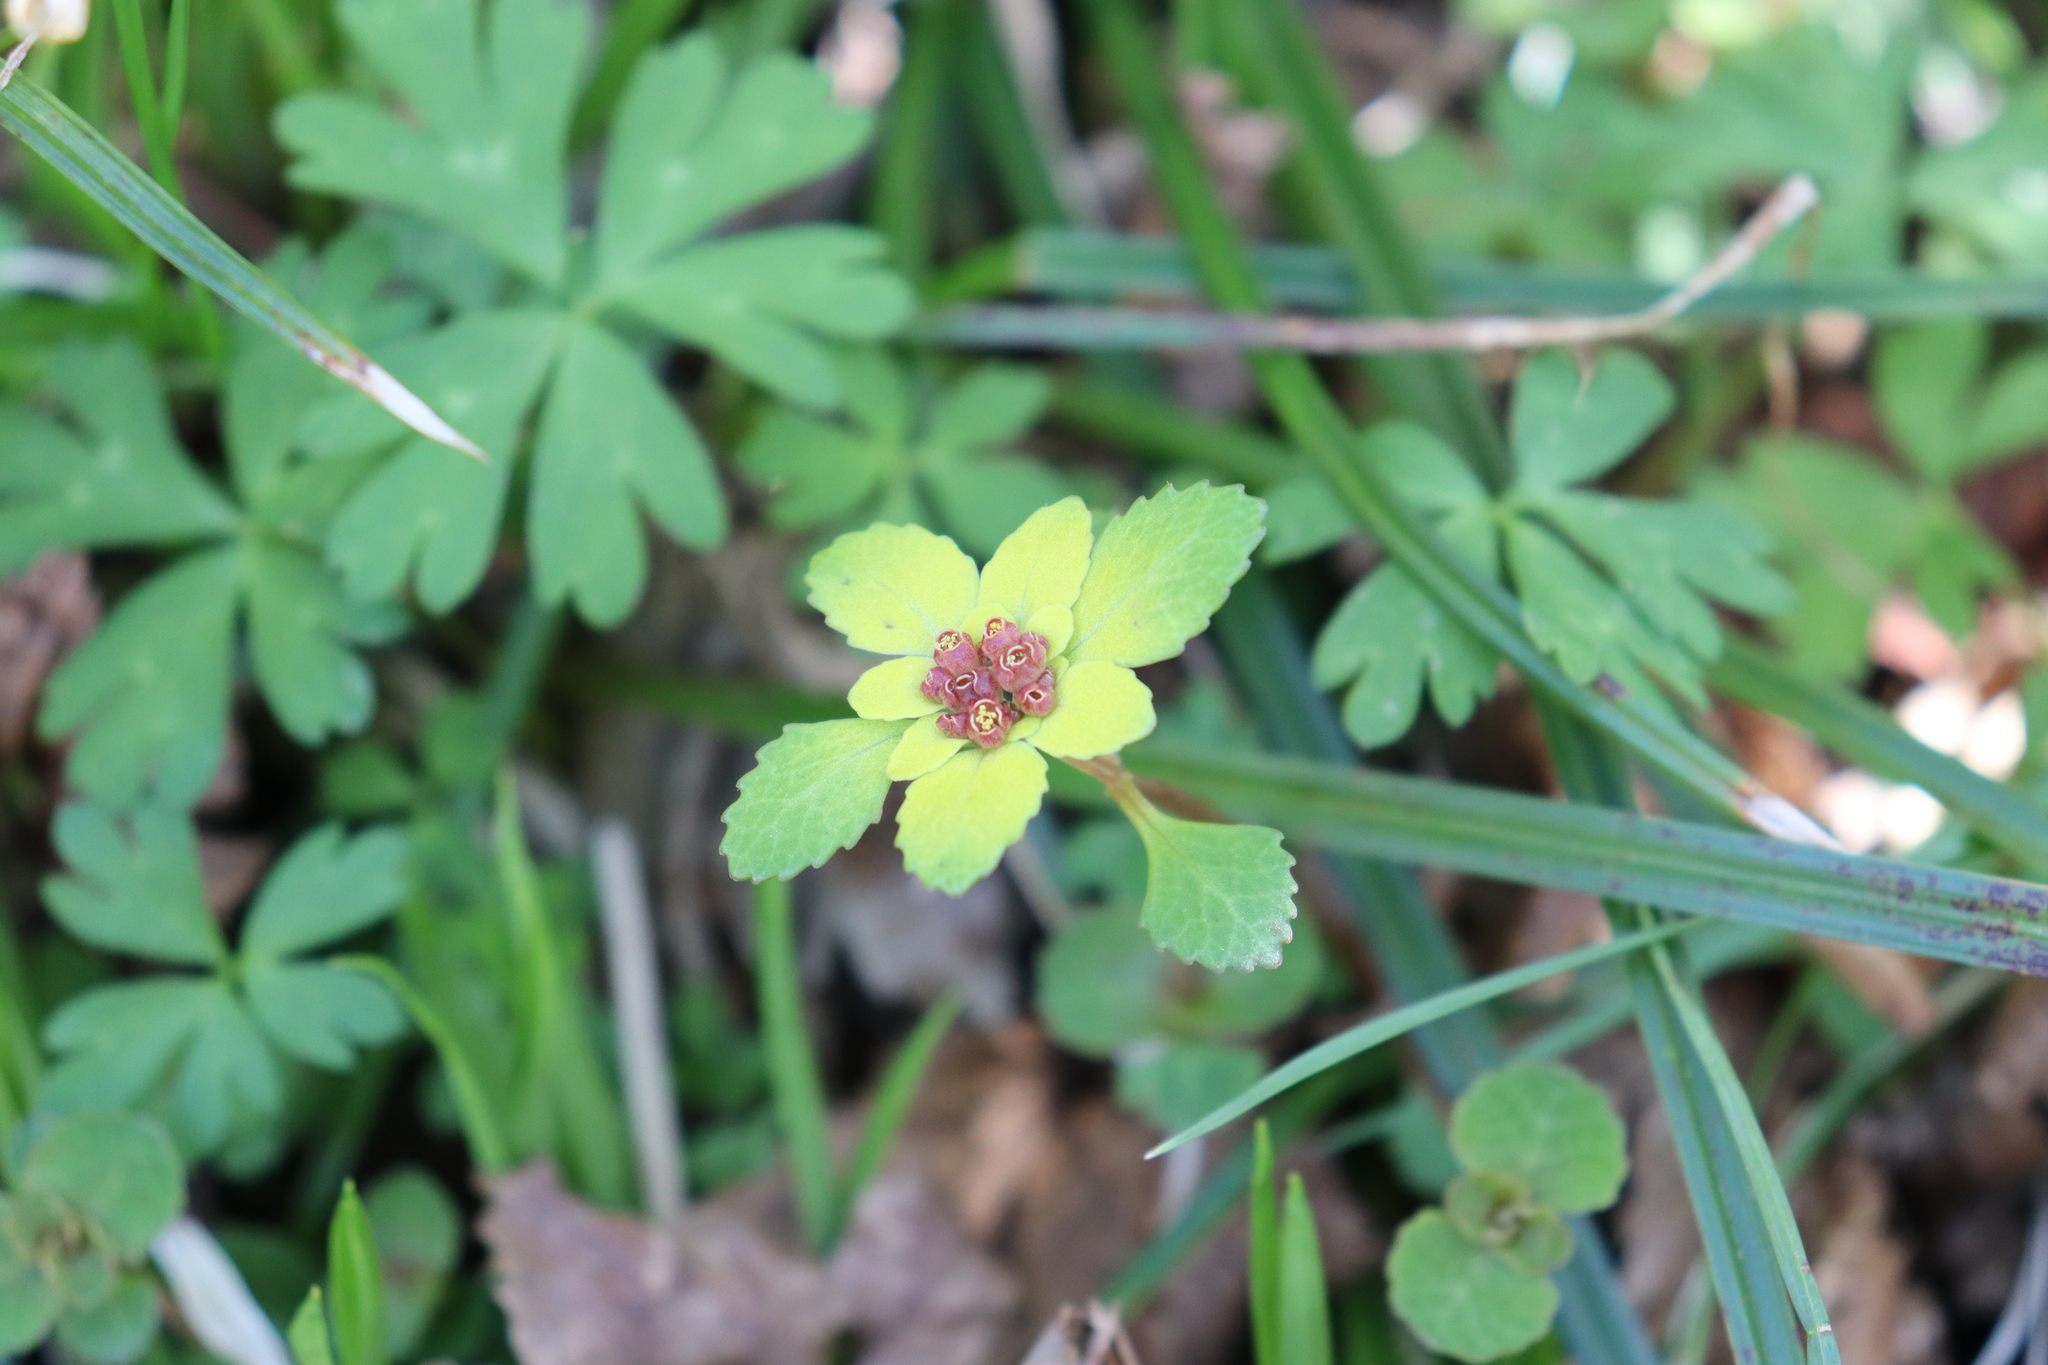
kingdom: Plantae
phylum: Tracheophyta
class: Magnoliopsida
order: Saxifragales
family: Saxifragaceae
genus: Chrysosplenium
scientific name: Chrysosplenium nagasei
